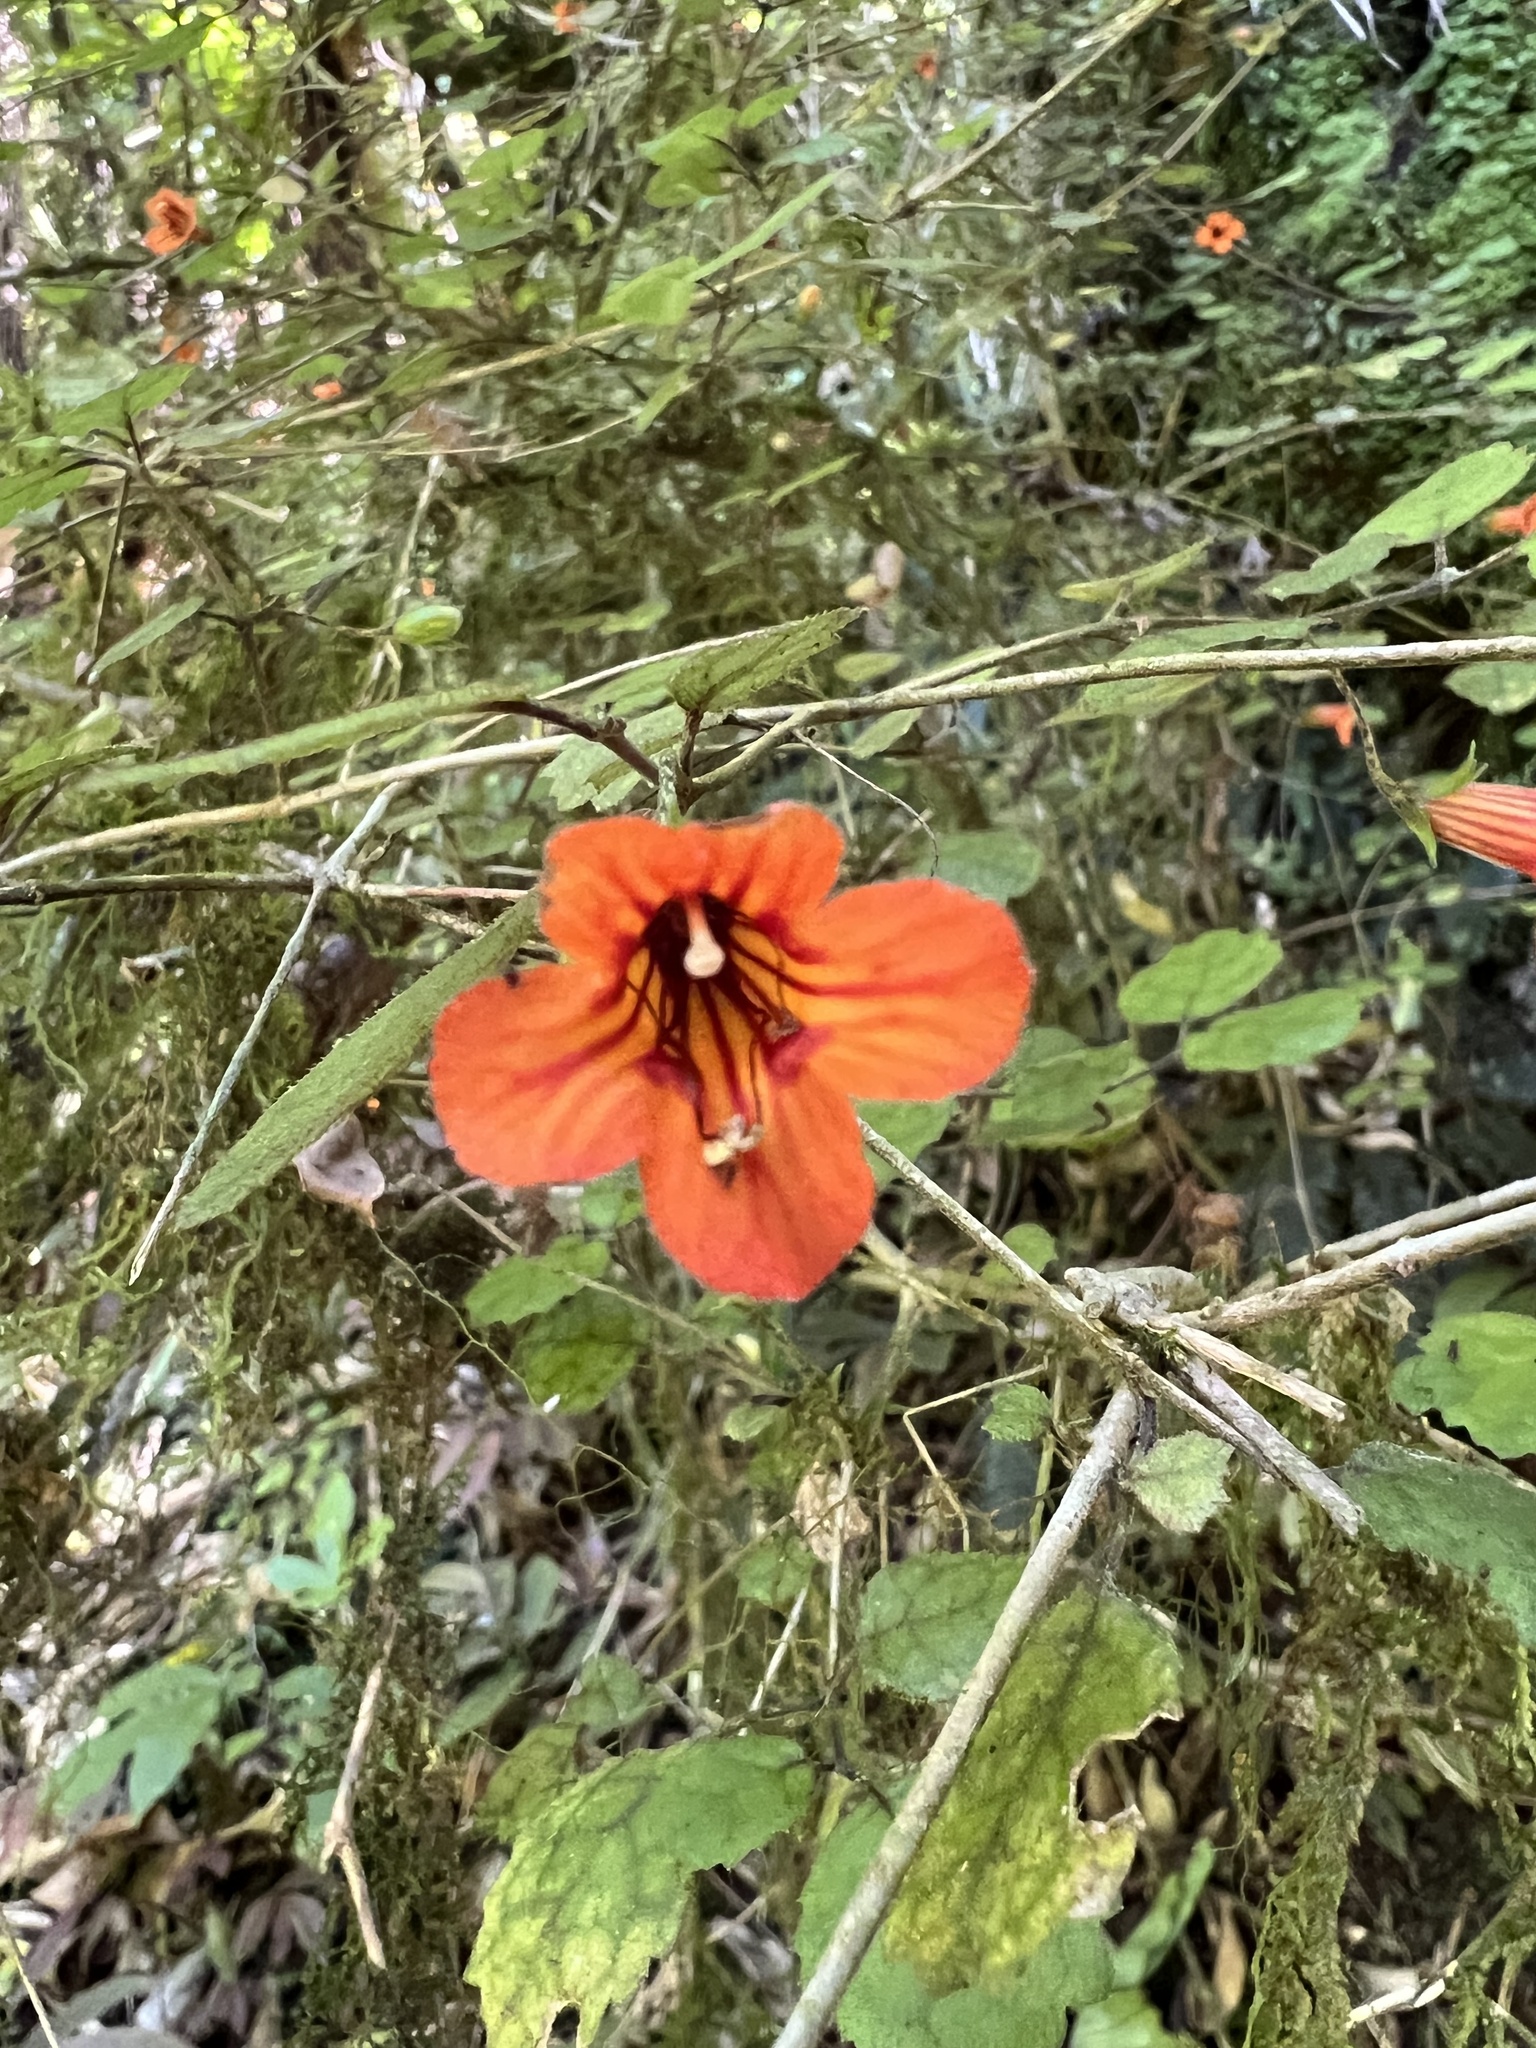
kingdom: Plantae
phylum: Tracheophyta
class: Magnoliopsida
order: Lamiales
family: Gesneriaceae
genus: Rhabdothamnus
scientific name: Rhabdothamnus solandri
